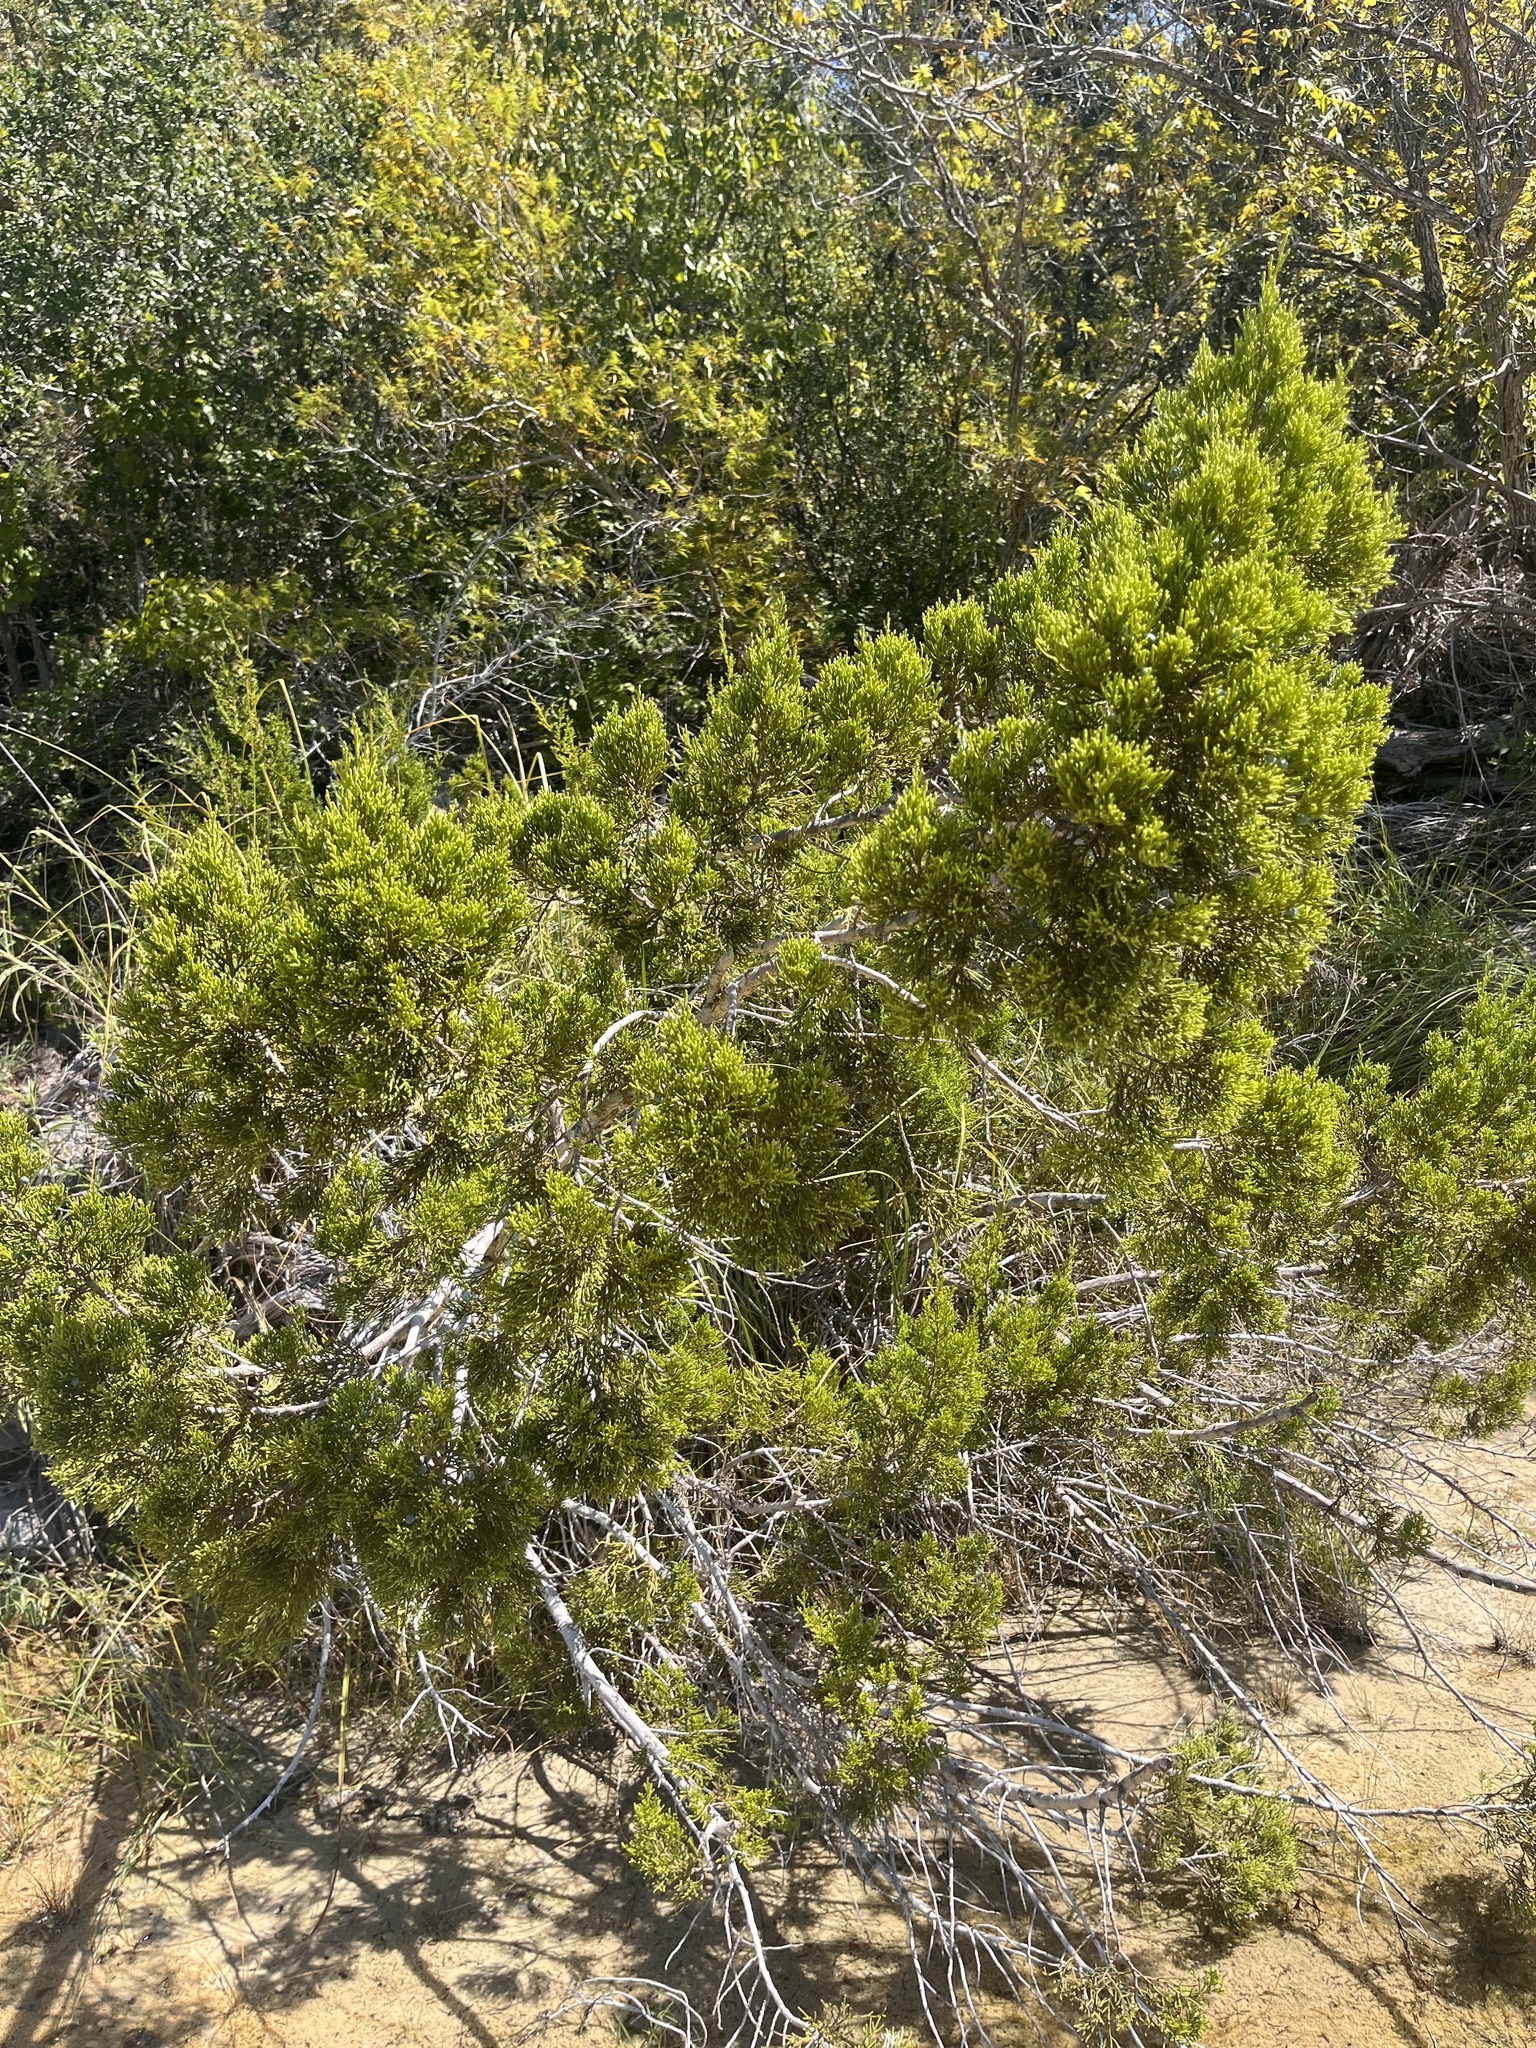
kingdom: Plantae
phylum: Tracheophyta
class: Pinopsida
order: Pinales
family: Cupressaceae
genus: Juniperus
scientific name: Juniperus ashei
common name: Mexican juniper
